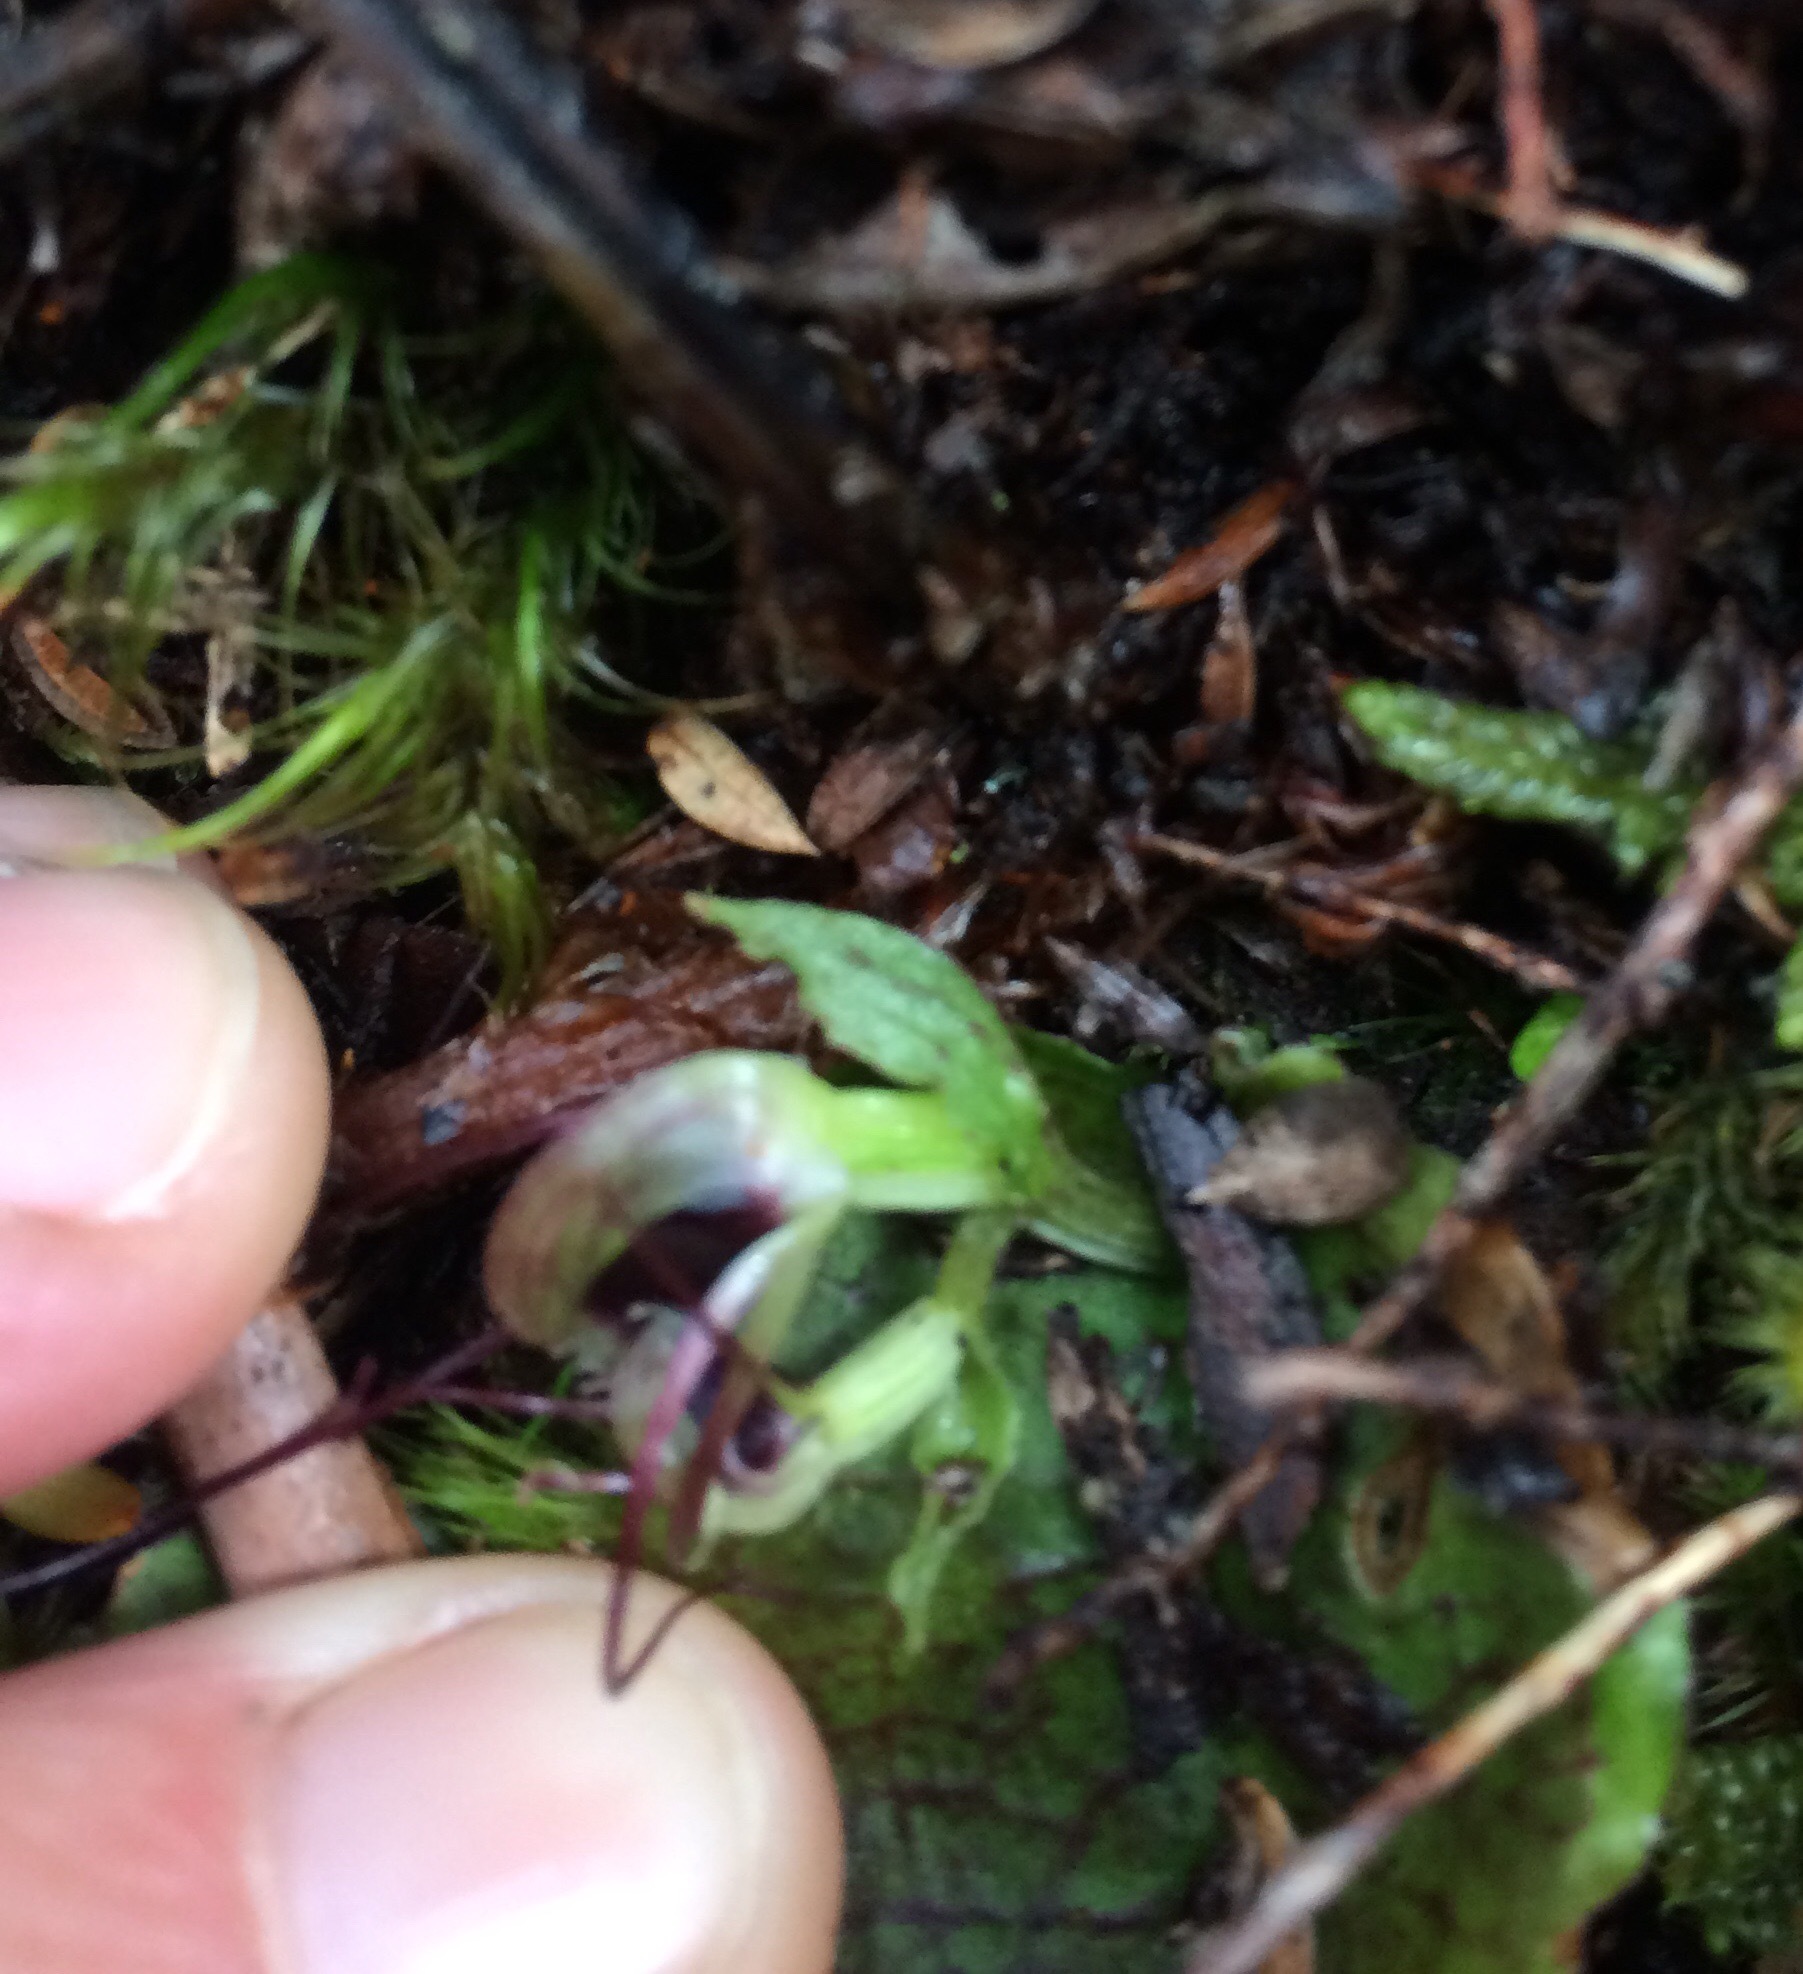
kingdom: Plantae
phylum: Tracheophyta
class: Liliopsida
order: Asparagales
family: Orchidaceae
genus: Corybas
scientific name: Corybas oblongus
